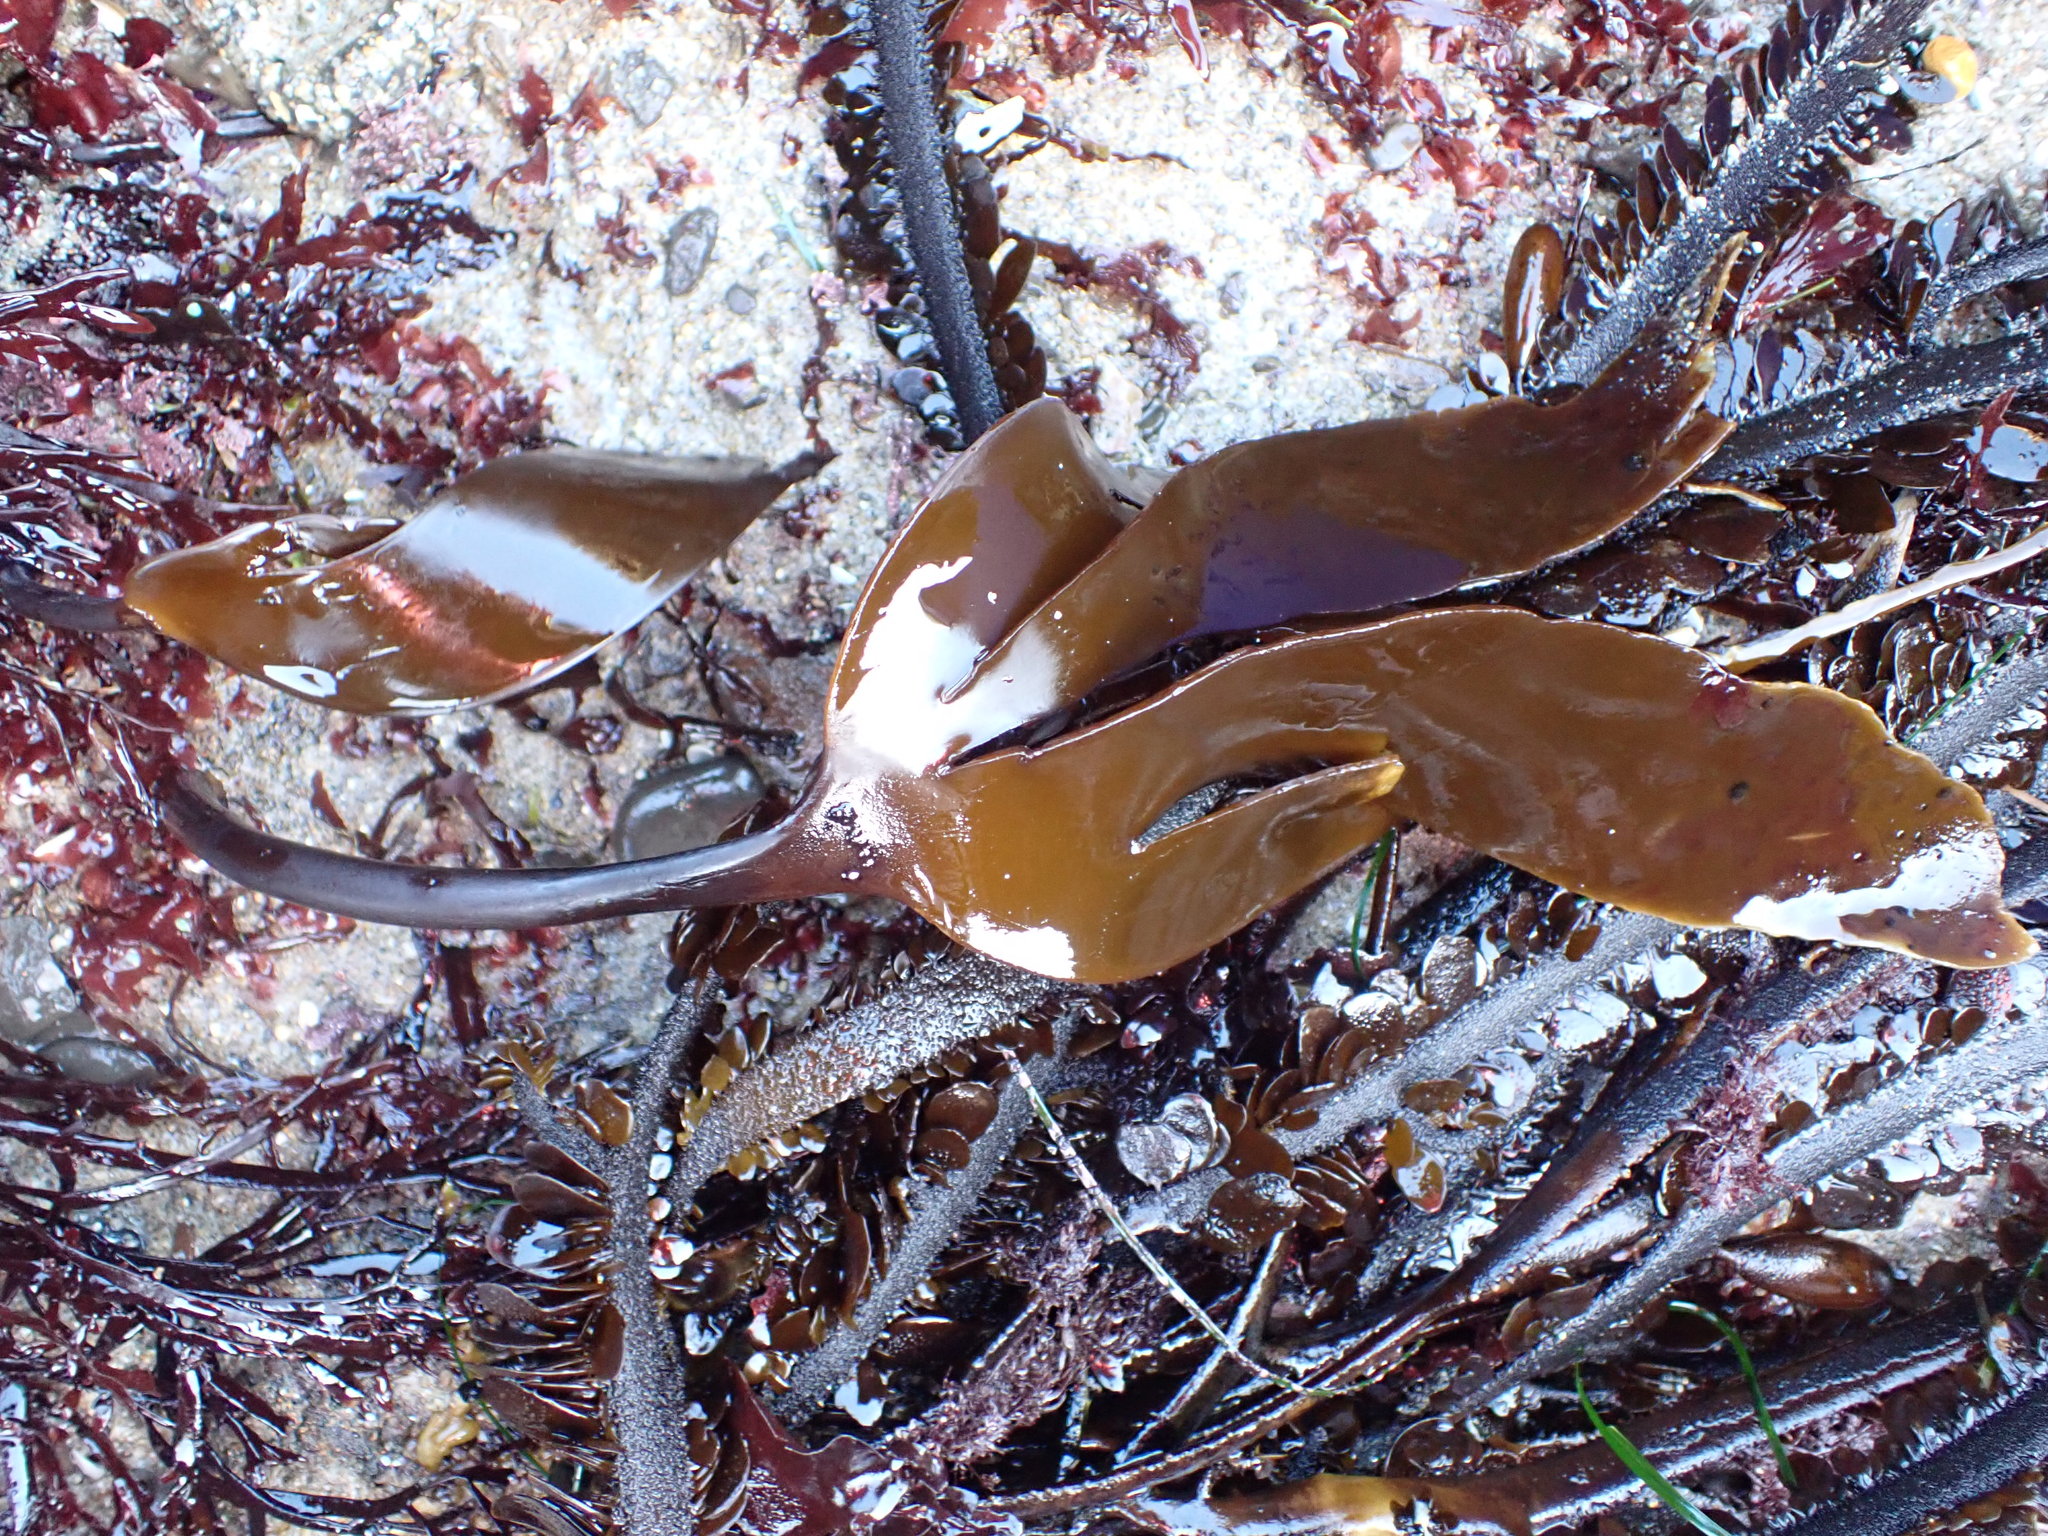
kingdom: Chromista
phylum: Ochrophyta
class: Phaeophyceae
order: Laminariales
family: Laminariaceae
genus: Laminaria
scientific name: Laminaria setchellii
